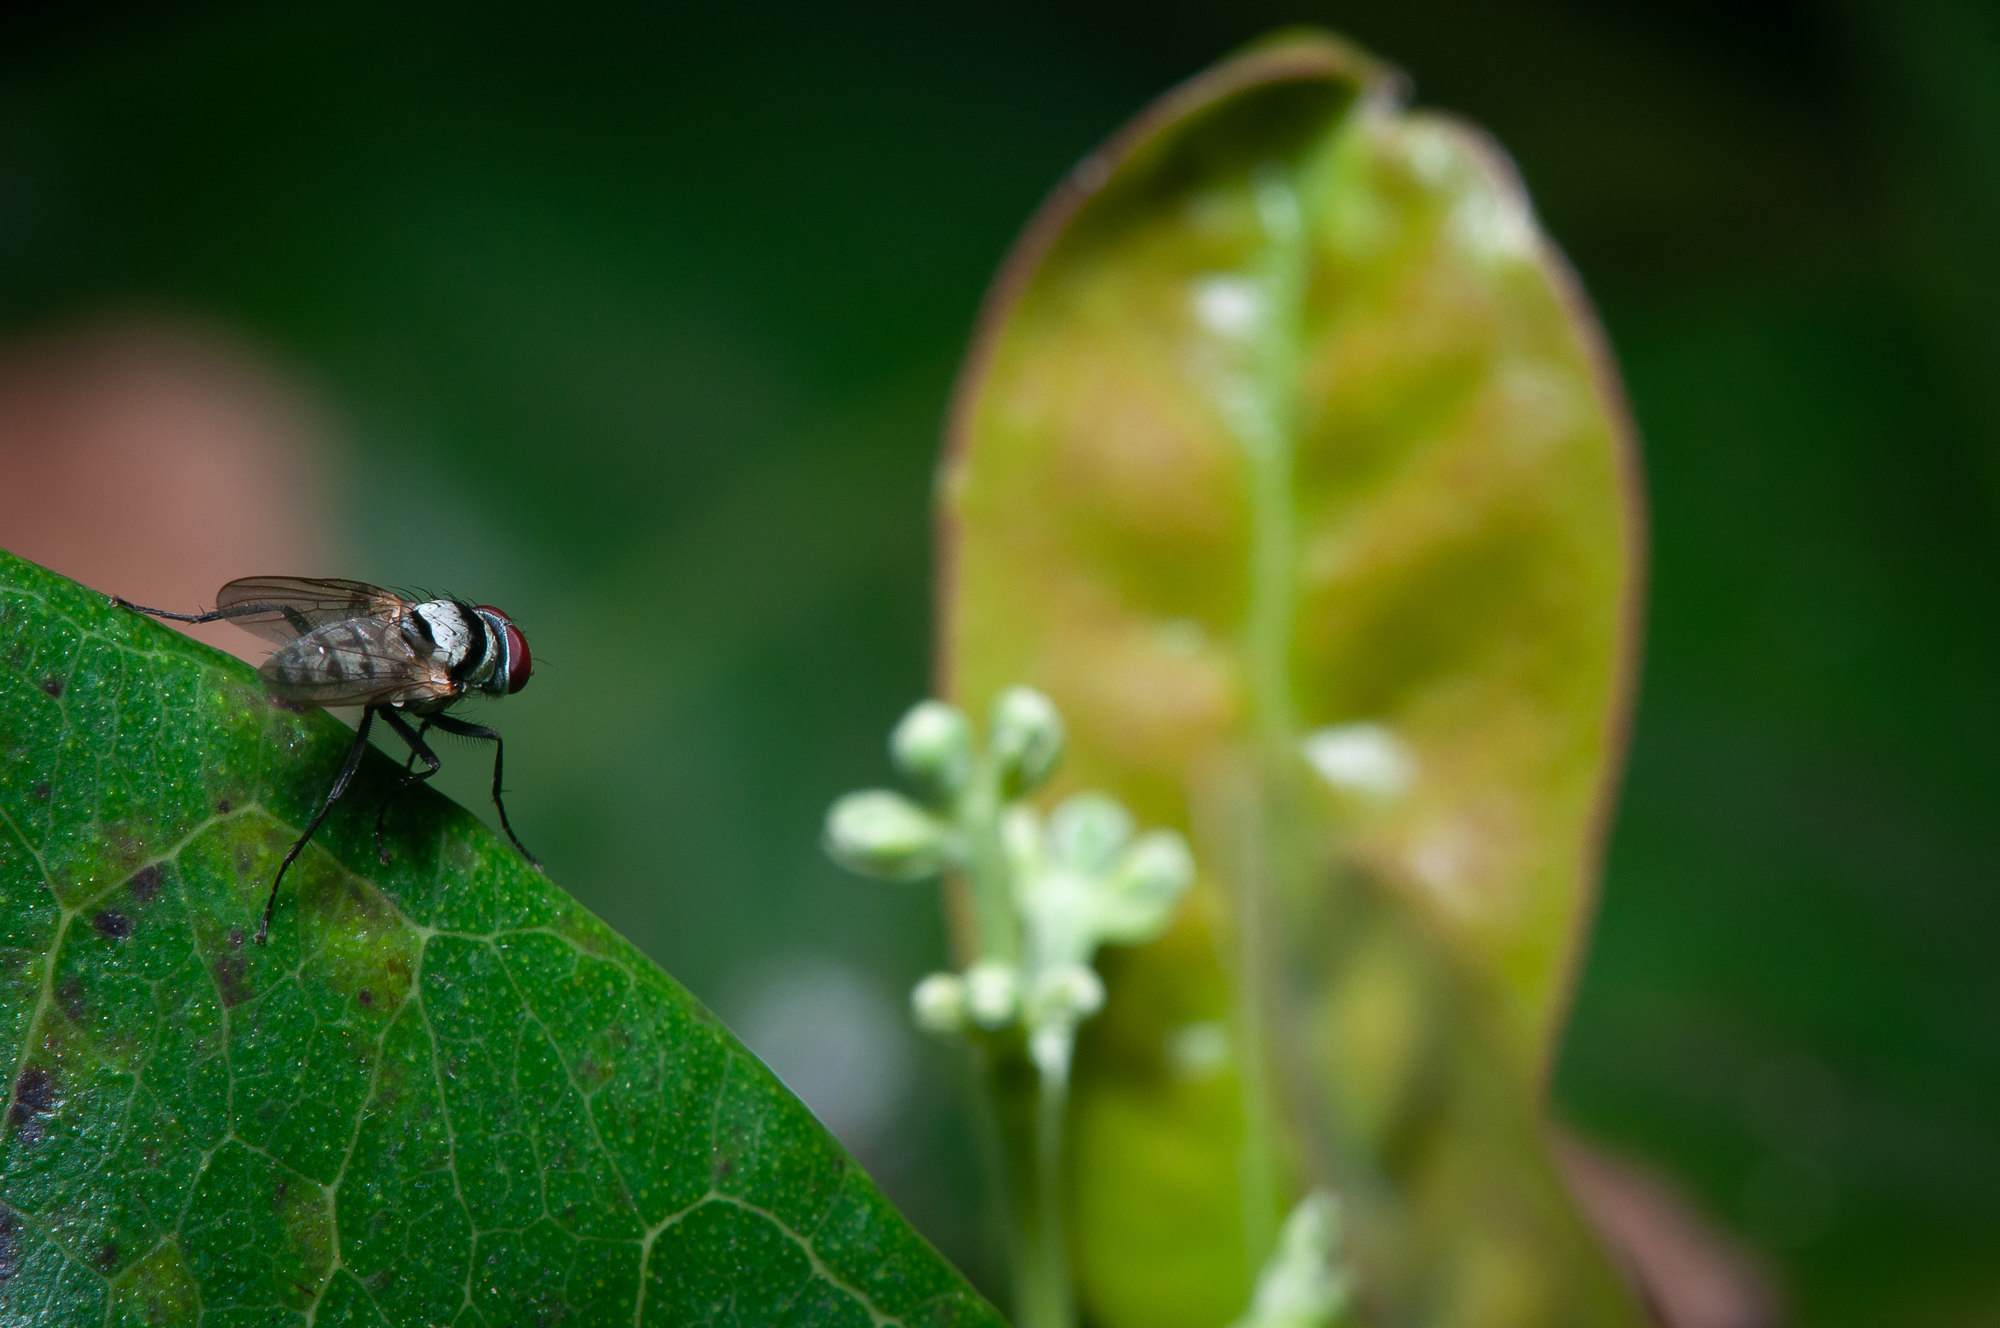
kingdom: Animalia
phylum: Arthropoda
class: Insecta
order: Diptera
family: Anthomyiidae
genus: Anthomyia
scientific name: Anthomyia illocata
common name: Fly
